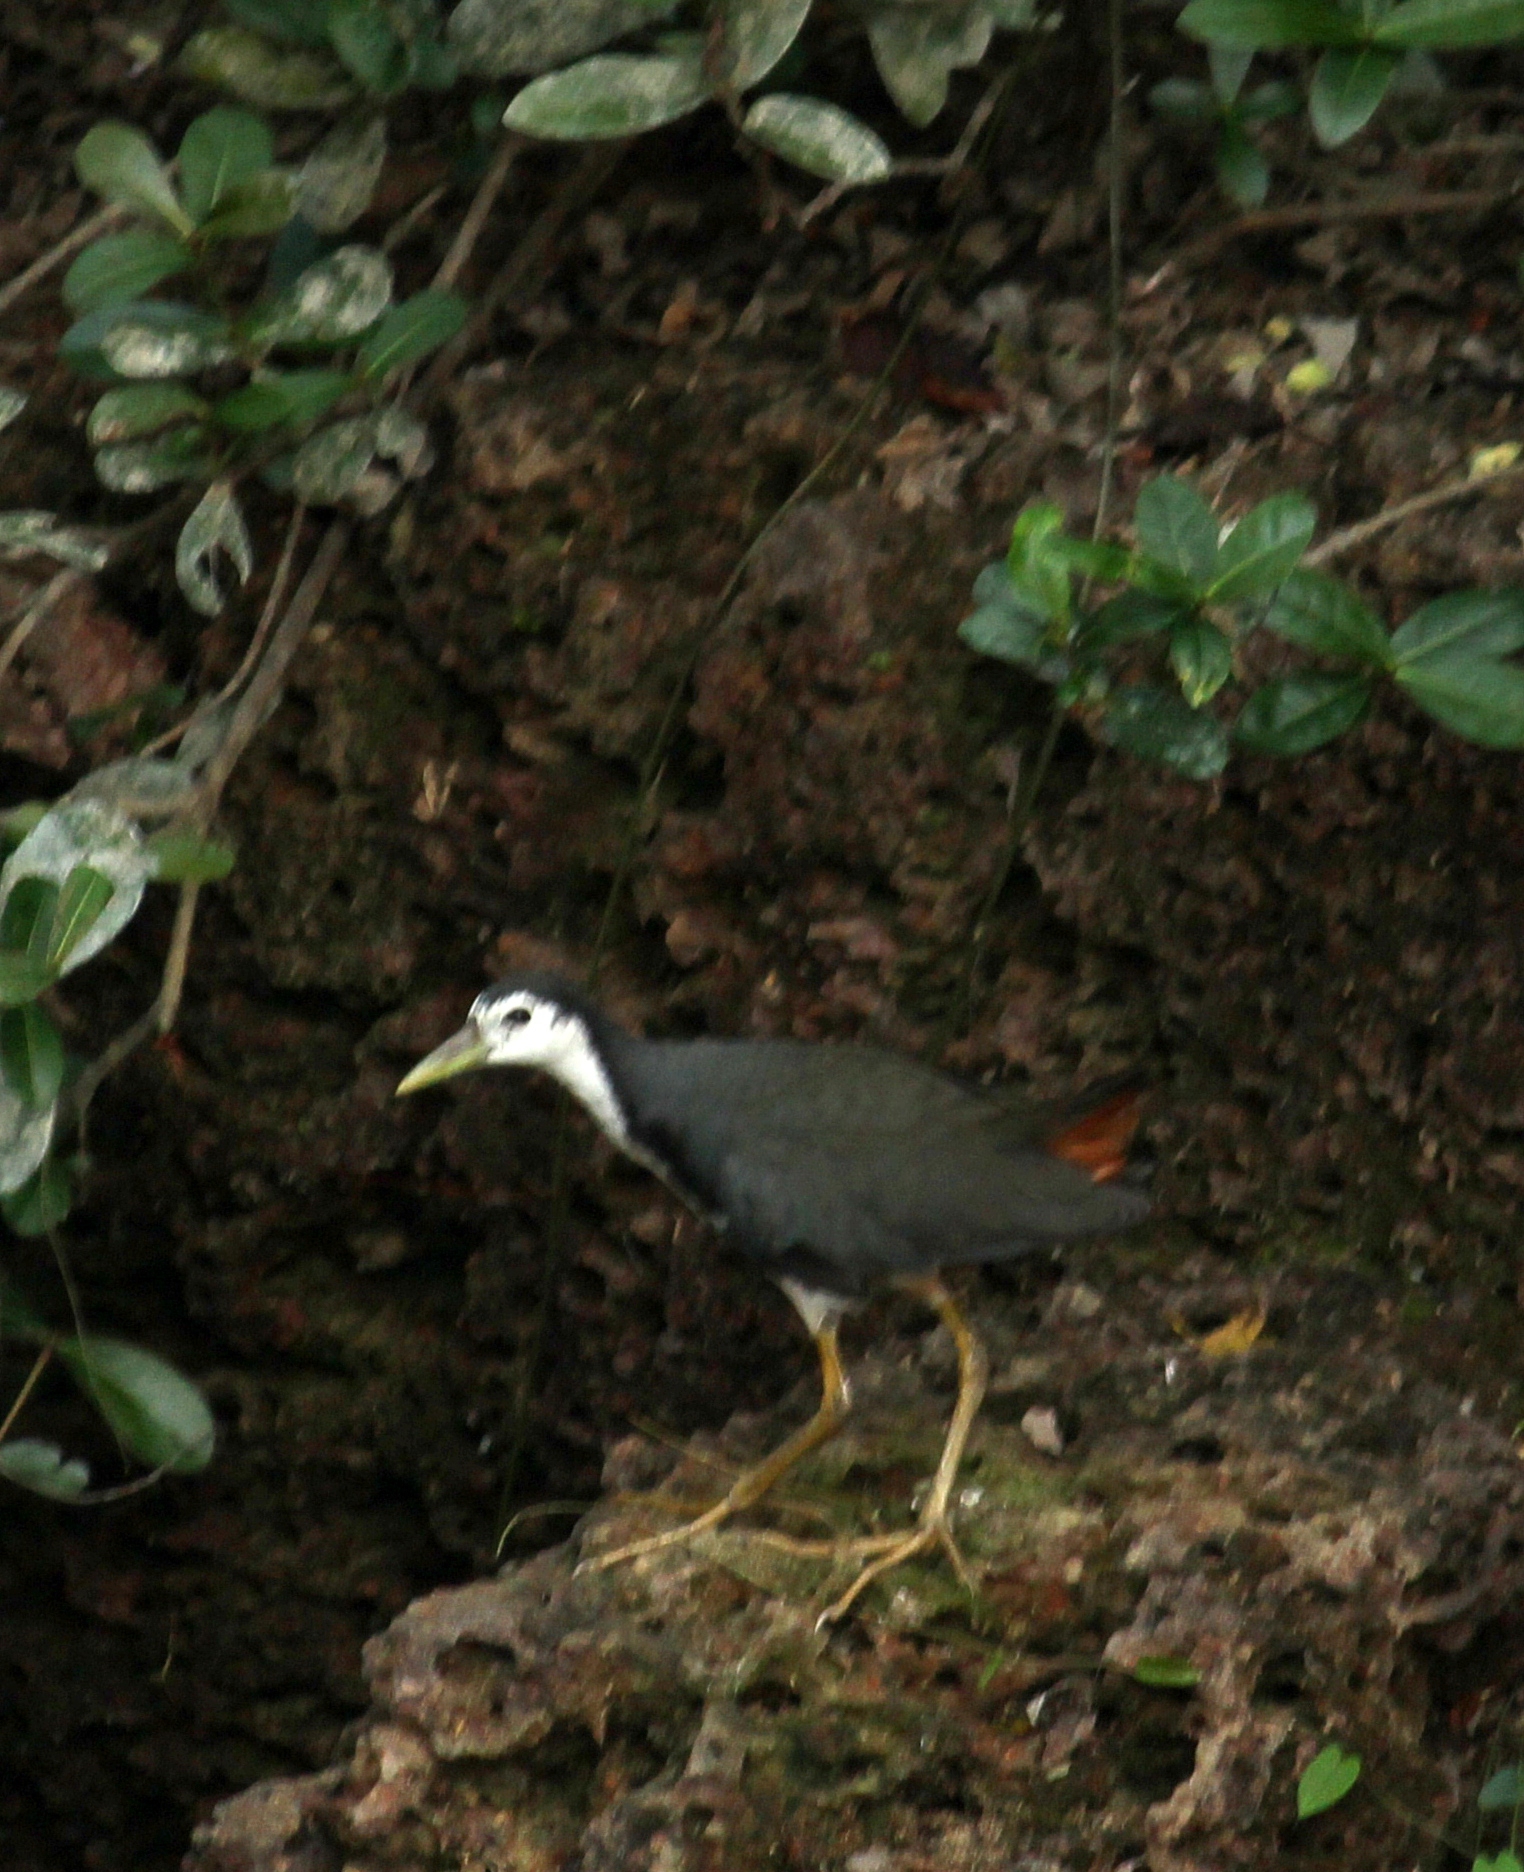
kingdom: Animalia
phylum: Chordata
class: Aves
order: Gruiformes
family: Rallidae
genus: Amaurornis
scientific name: Amaurornis phoenicurus
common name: White-breasted waterhen
